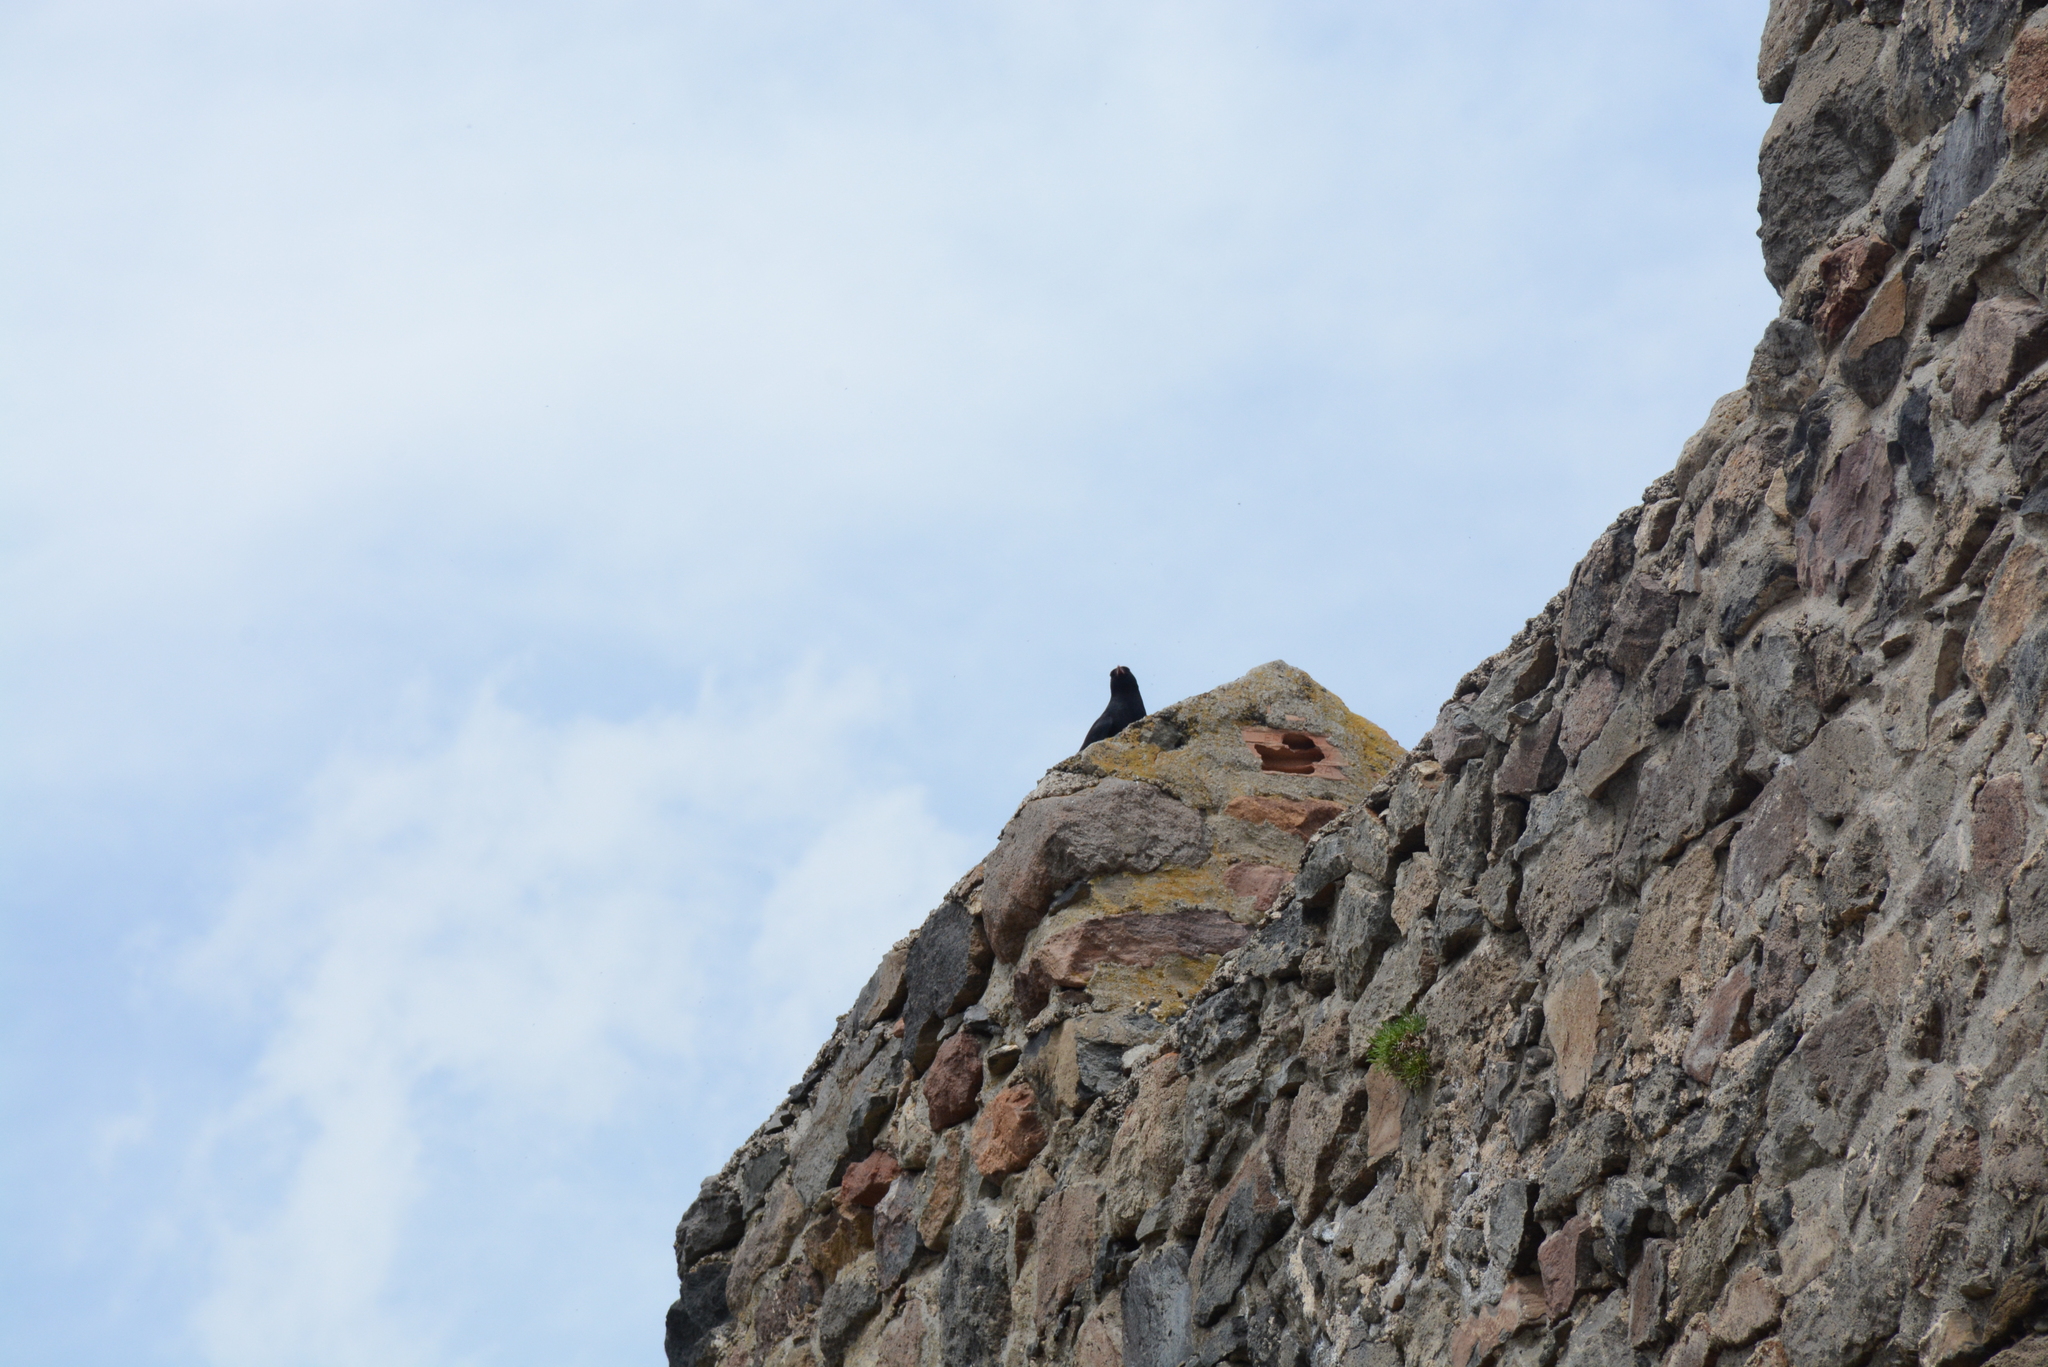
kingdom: Animalia
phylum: Chordata
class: Aves
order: Passeriformes
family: Corvidae
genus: Pyrrhocorax
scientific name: Pyrrhocorax pyrrhocorax
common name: Red-billed chough
